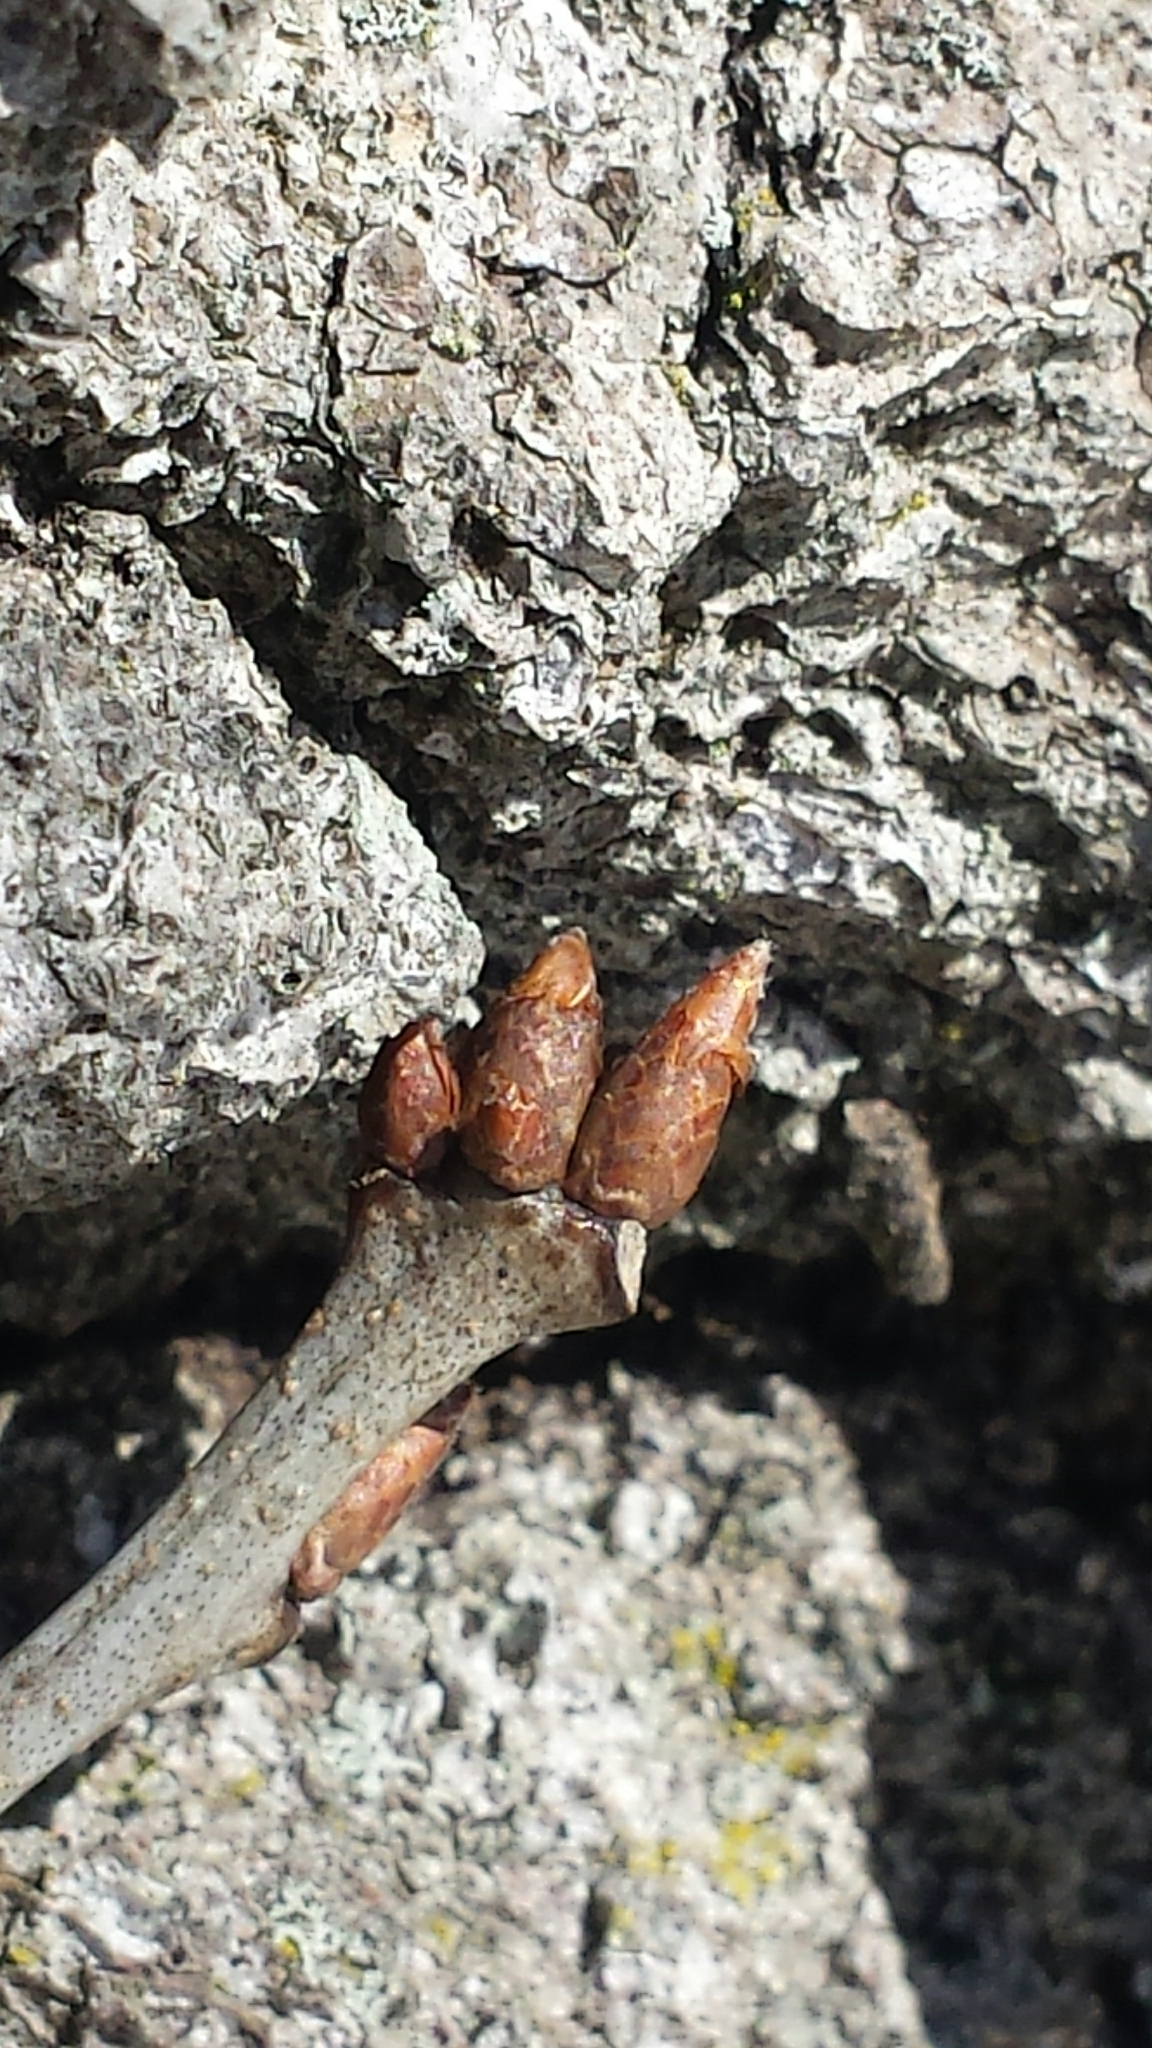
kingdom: Plantae
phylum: Tracheophyta
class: Magnoliopsida
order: Fagales
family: Fagaceae
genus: Quercus
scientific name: Quercus rubra
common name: Red oak
